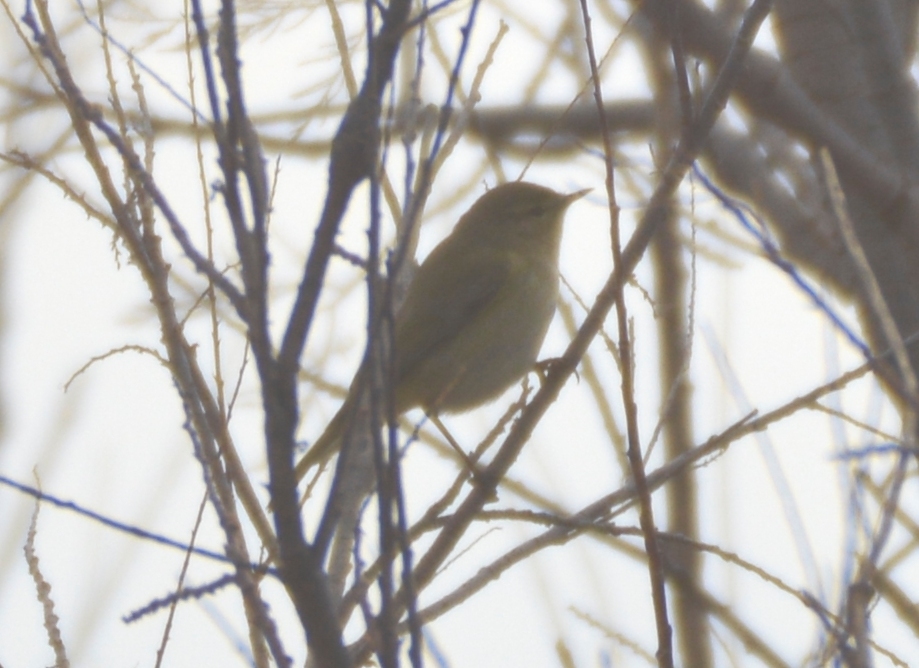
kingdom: Animalia
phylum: Chordata
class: Aves
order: Passeriformes
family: Phylloscopidae
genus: Phylloscopus
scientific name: Phylloscopus collybita
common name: Common chiffchaff
